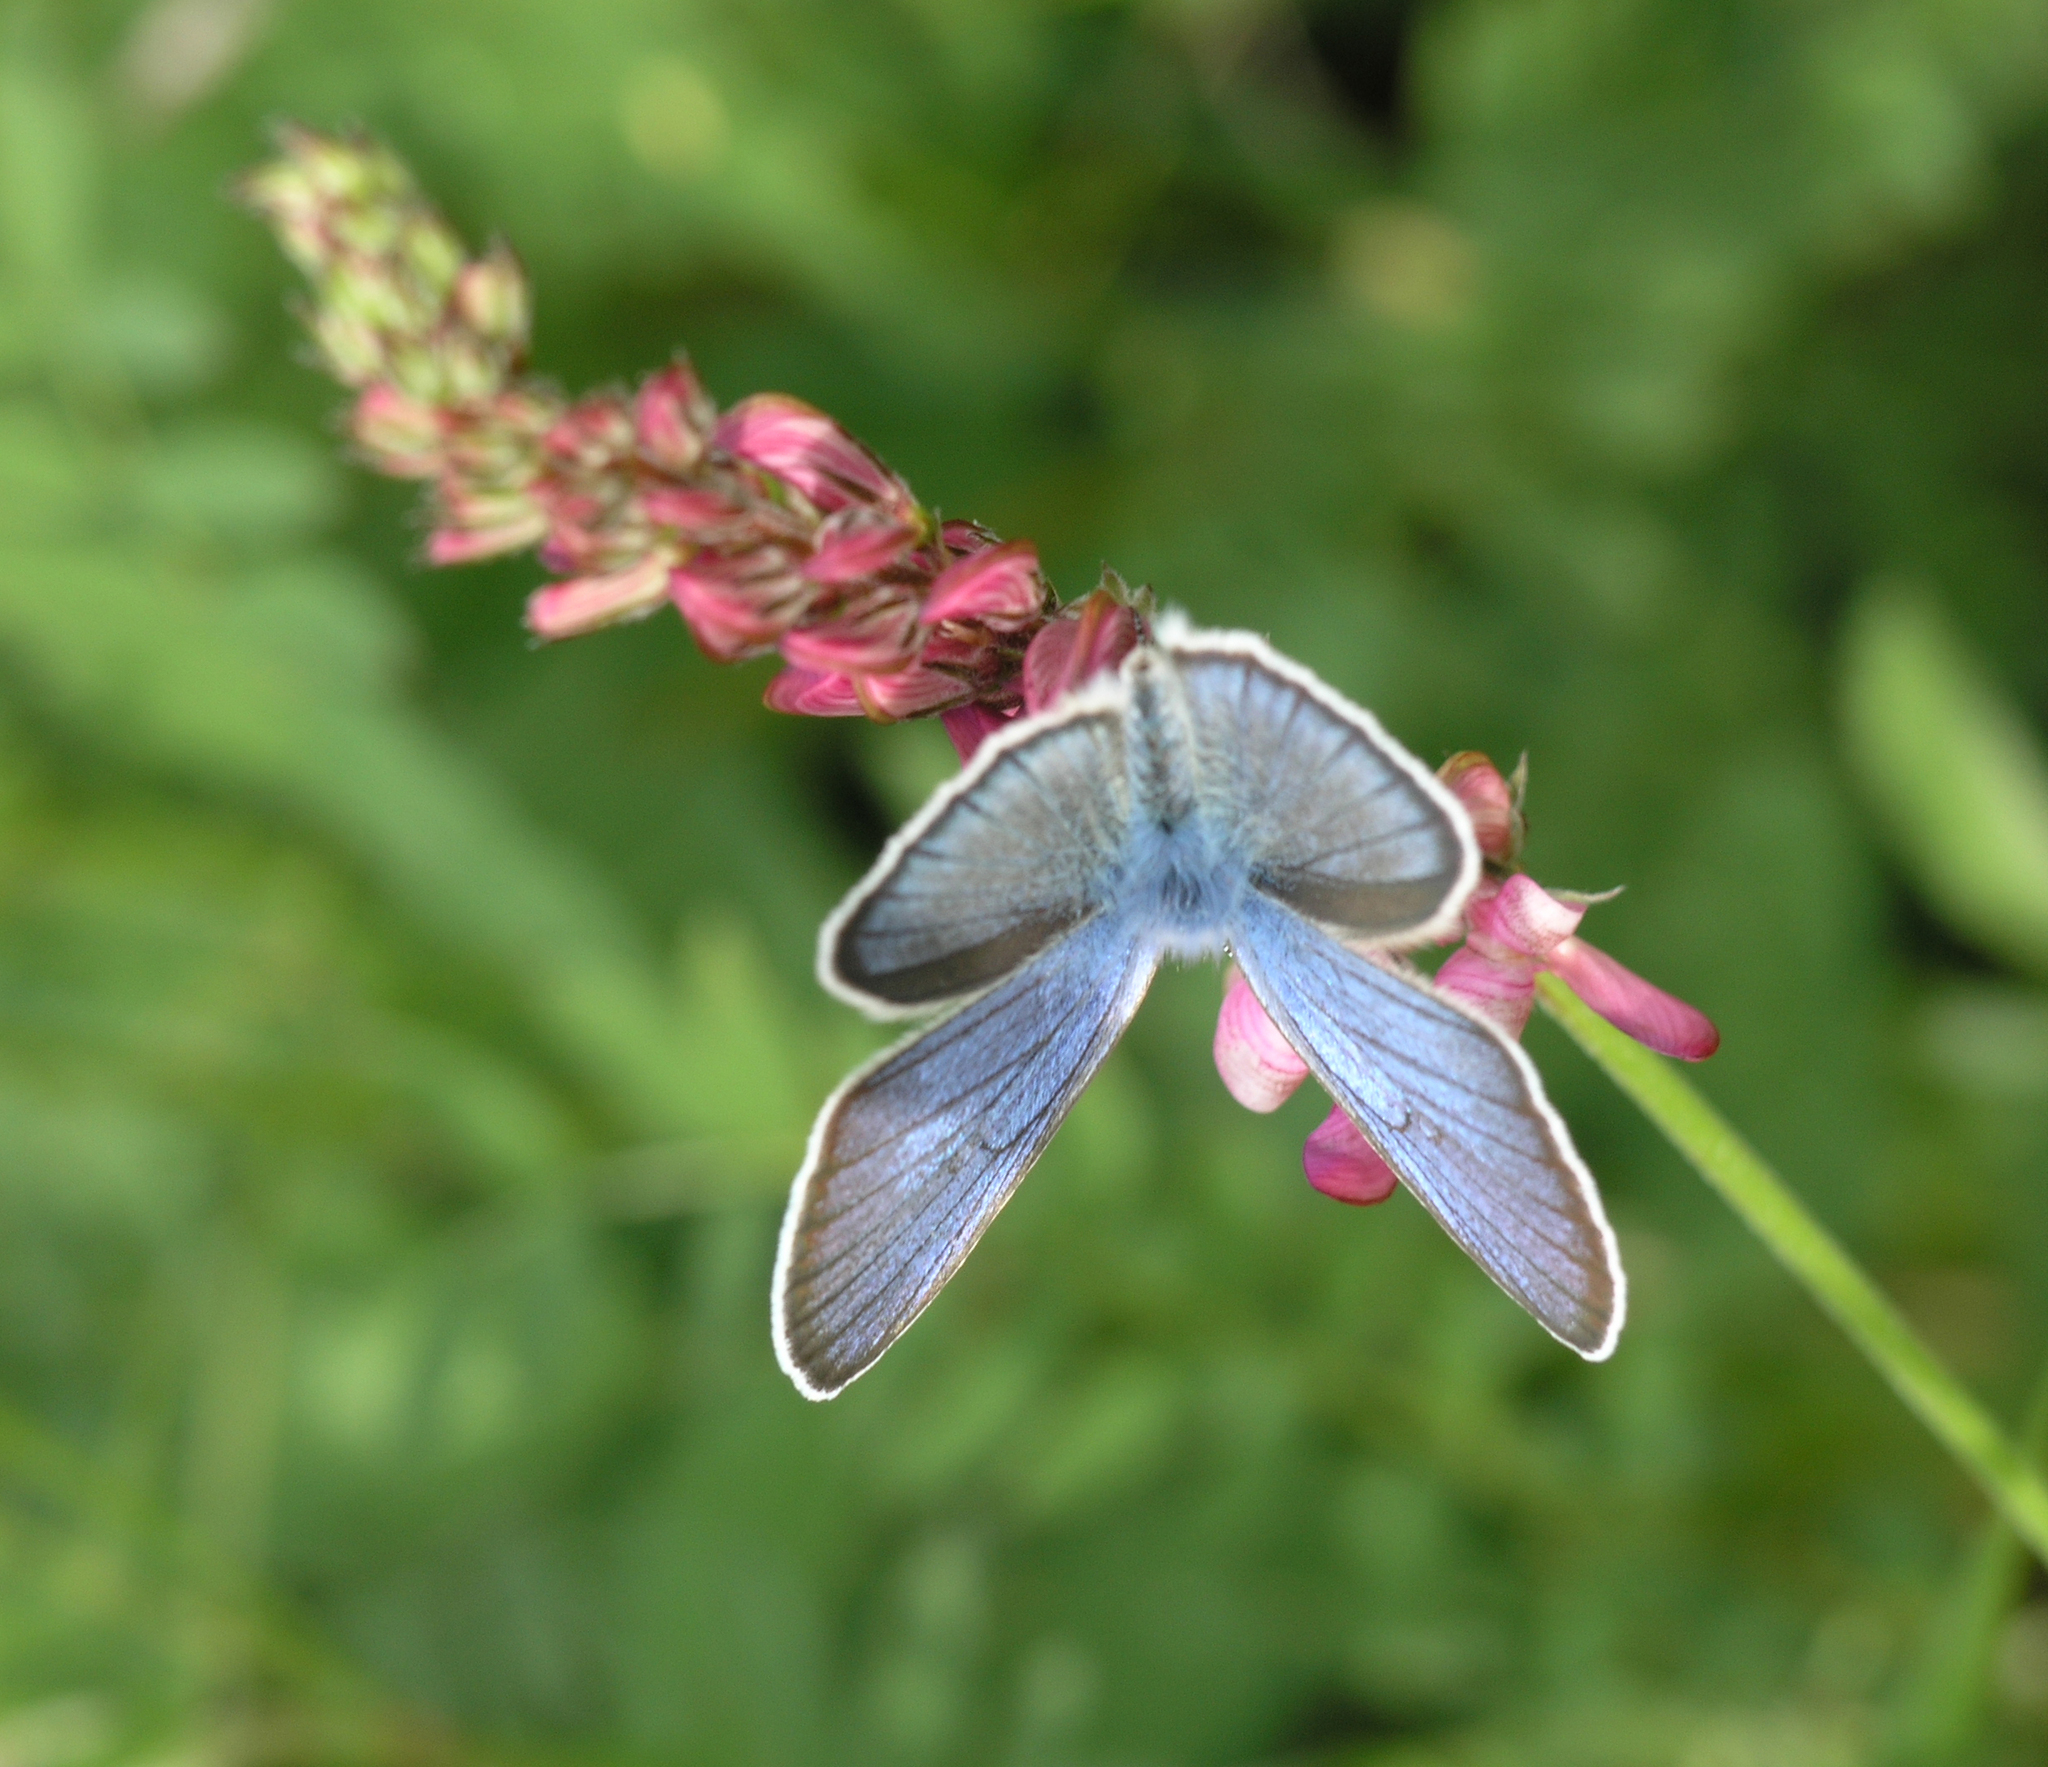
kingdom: Animalia
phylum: Arthropoda
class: Insecta
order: Lepidoptera
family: Lycaenidae
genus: Cyaniris
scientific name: Cyaniris semiargus
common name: Mazarine blue
